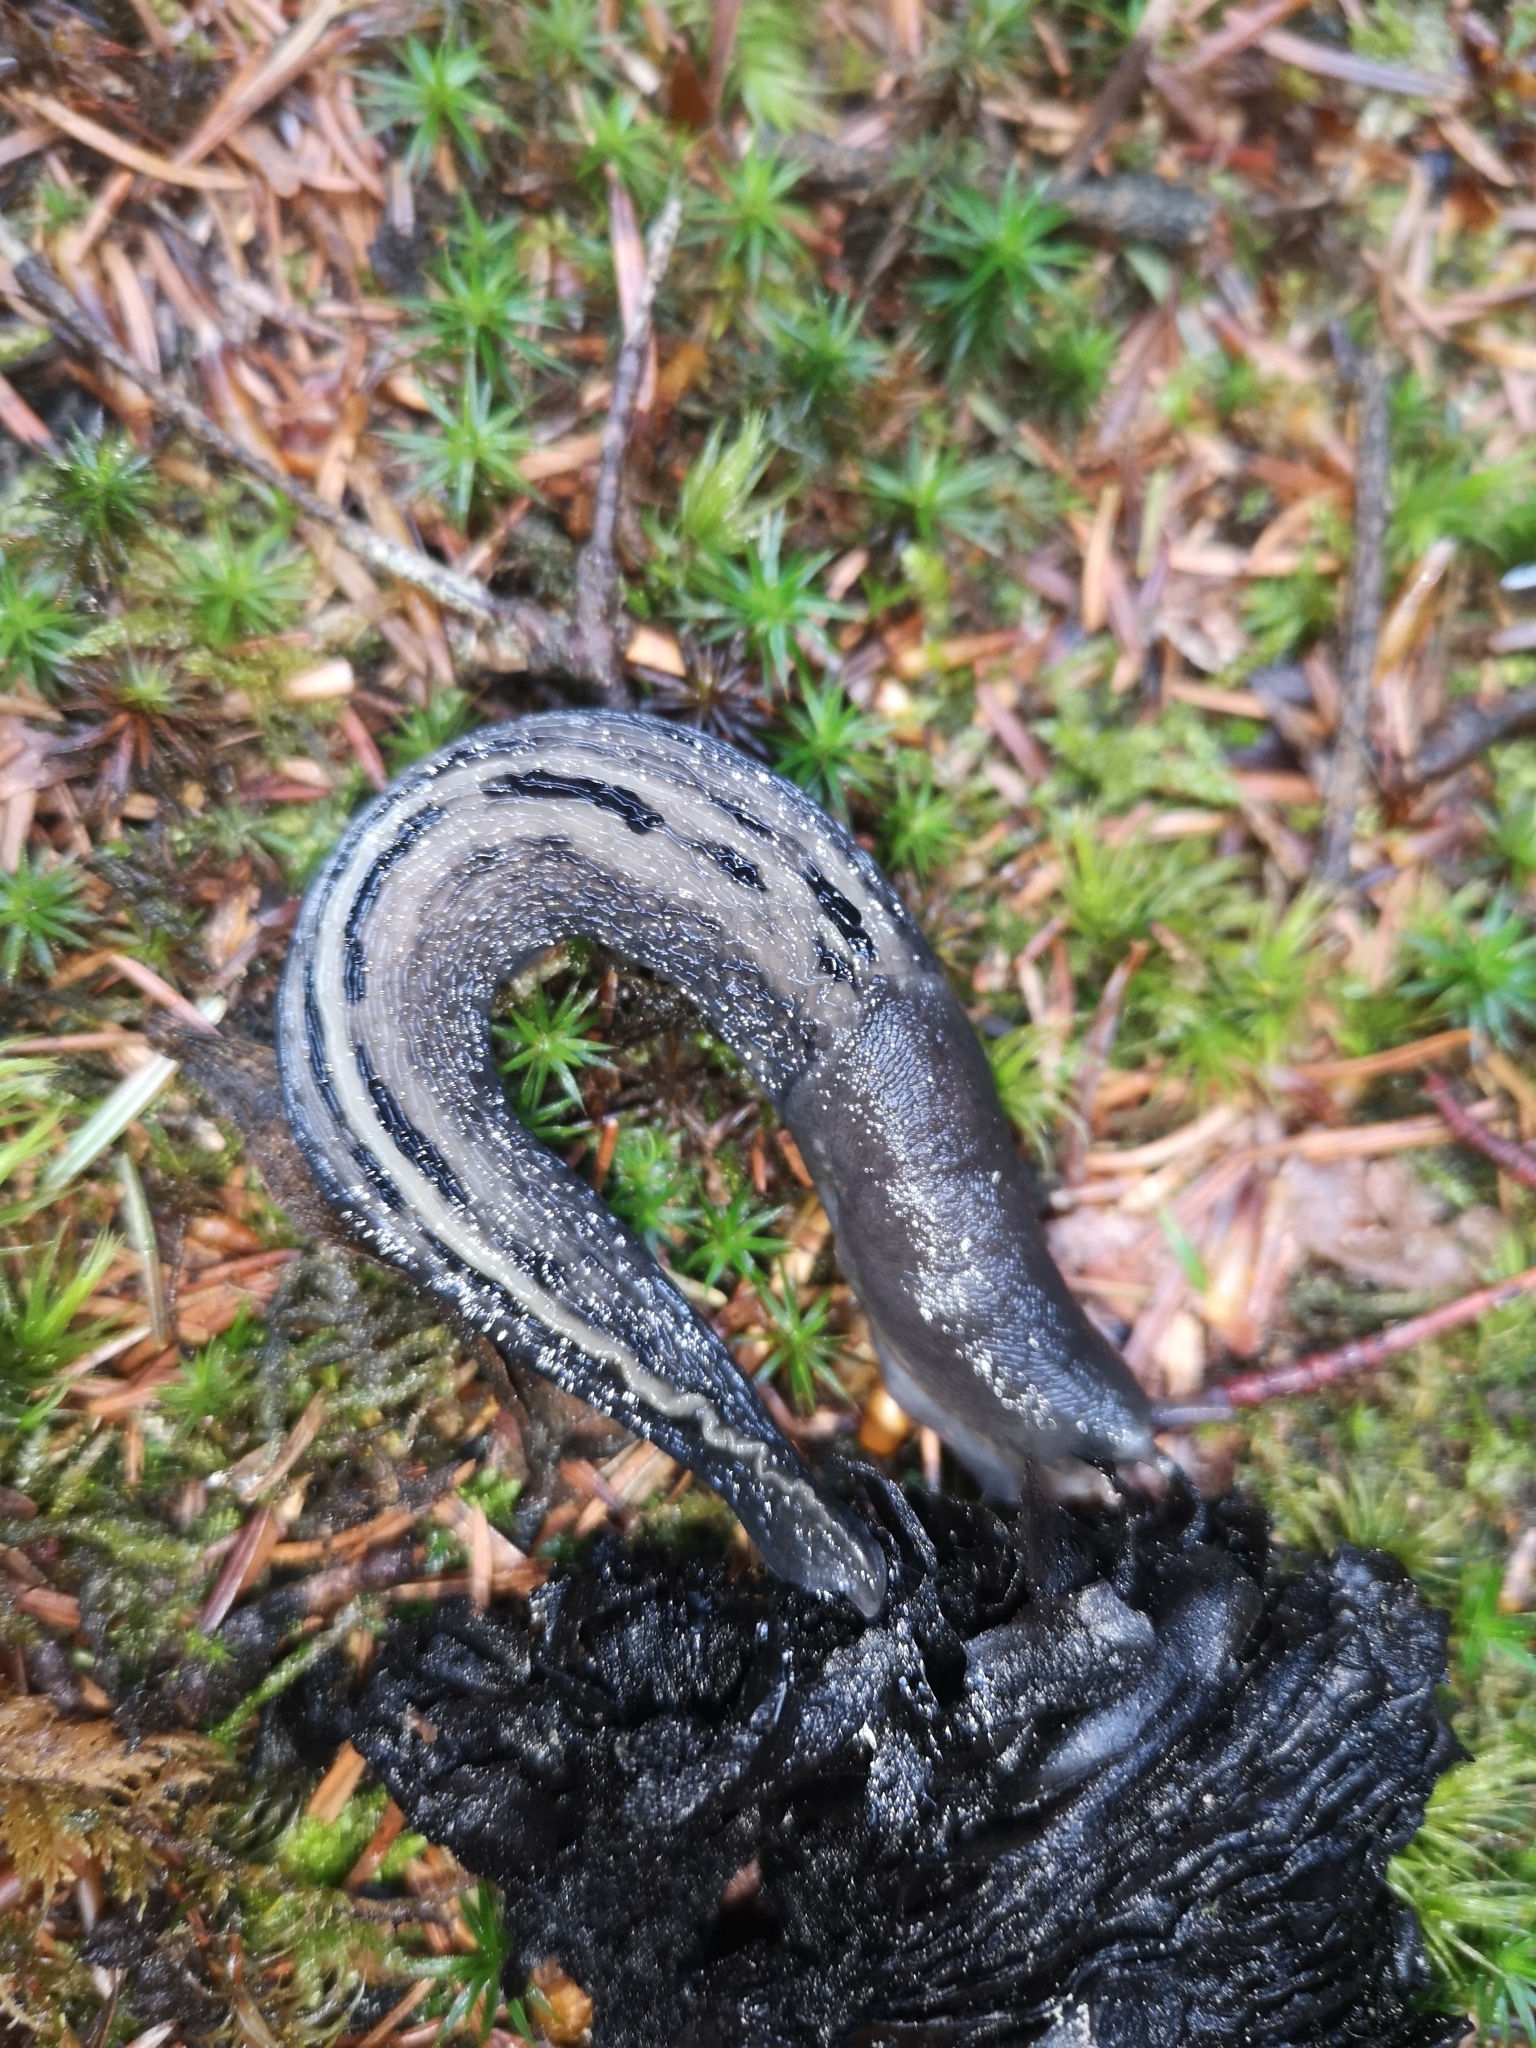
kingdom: Animalia
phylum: Mollusca
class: Gastropoda
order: Stylommatophora
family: Limacidae
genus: Limax
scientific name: Limax cinereoniger
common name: Ash-black slug
